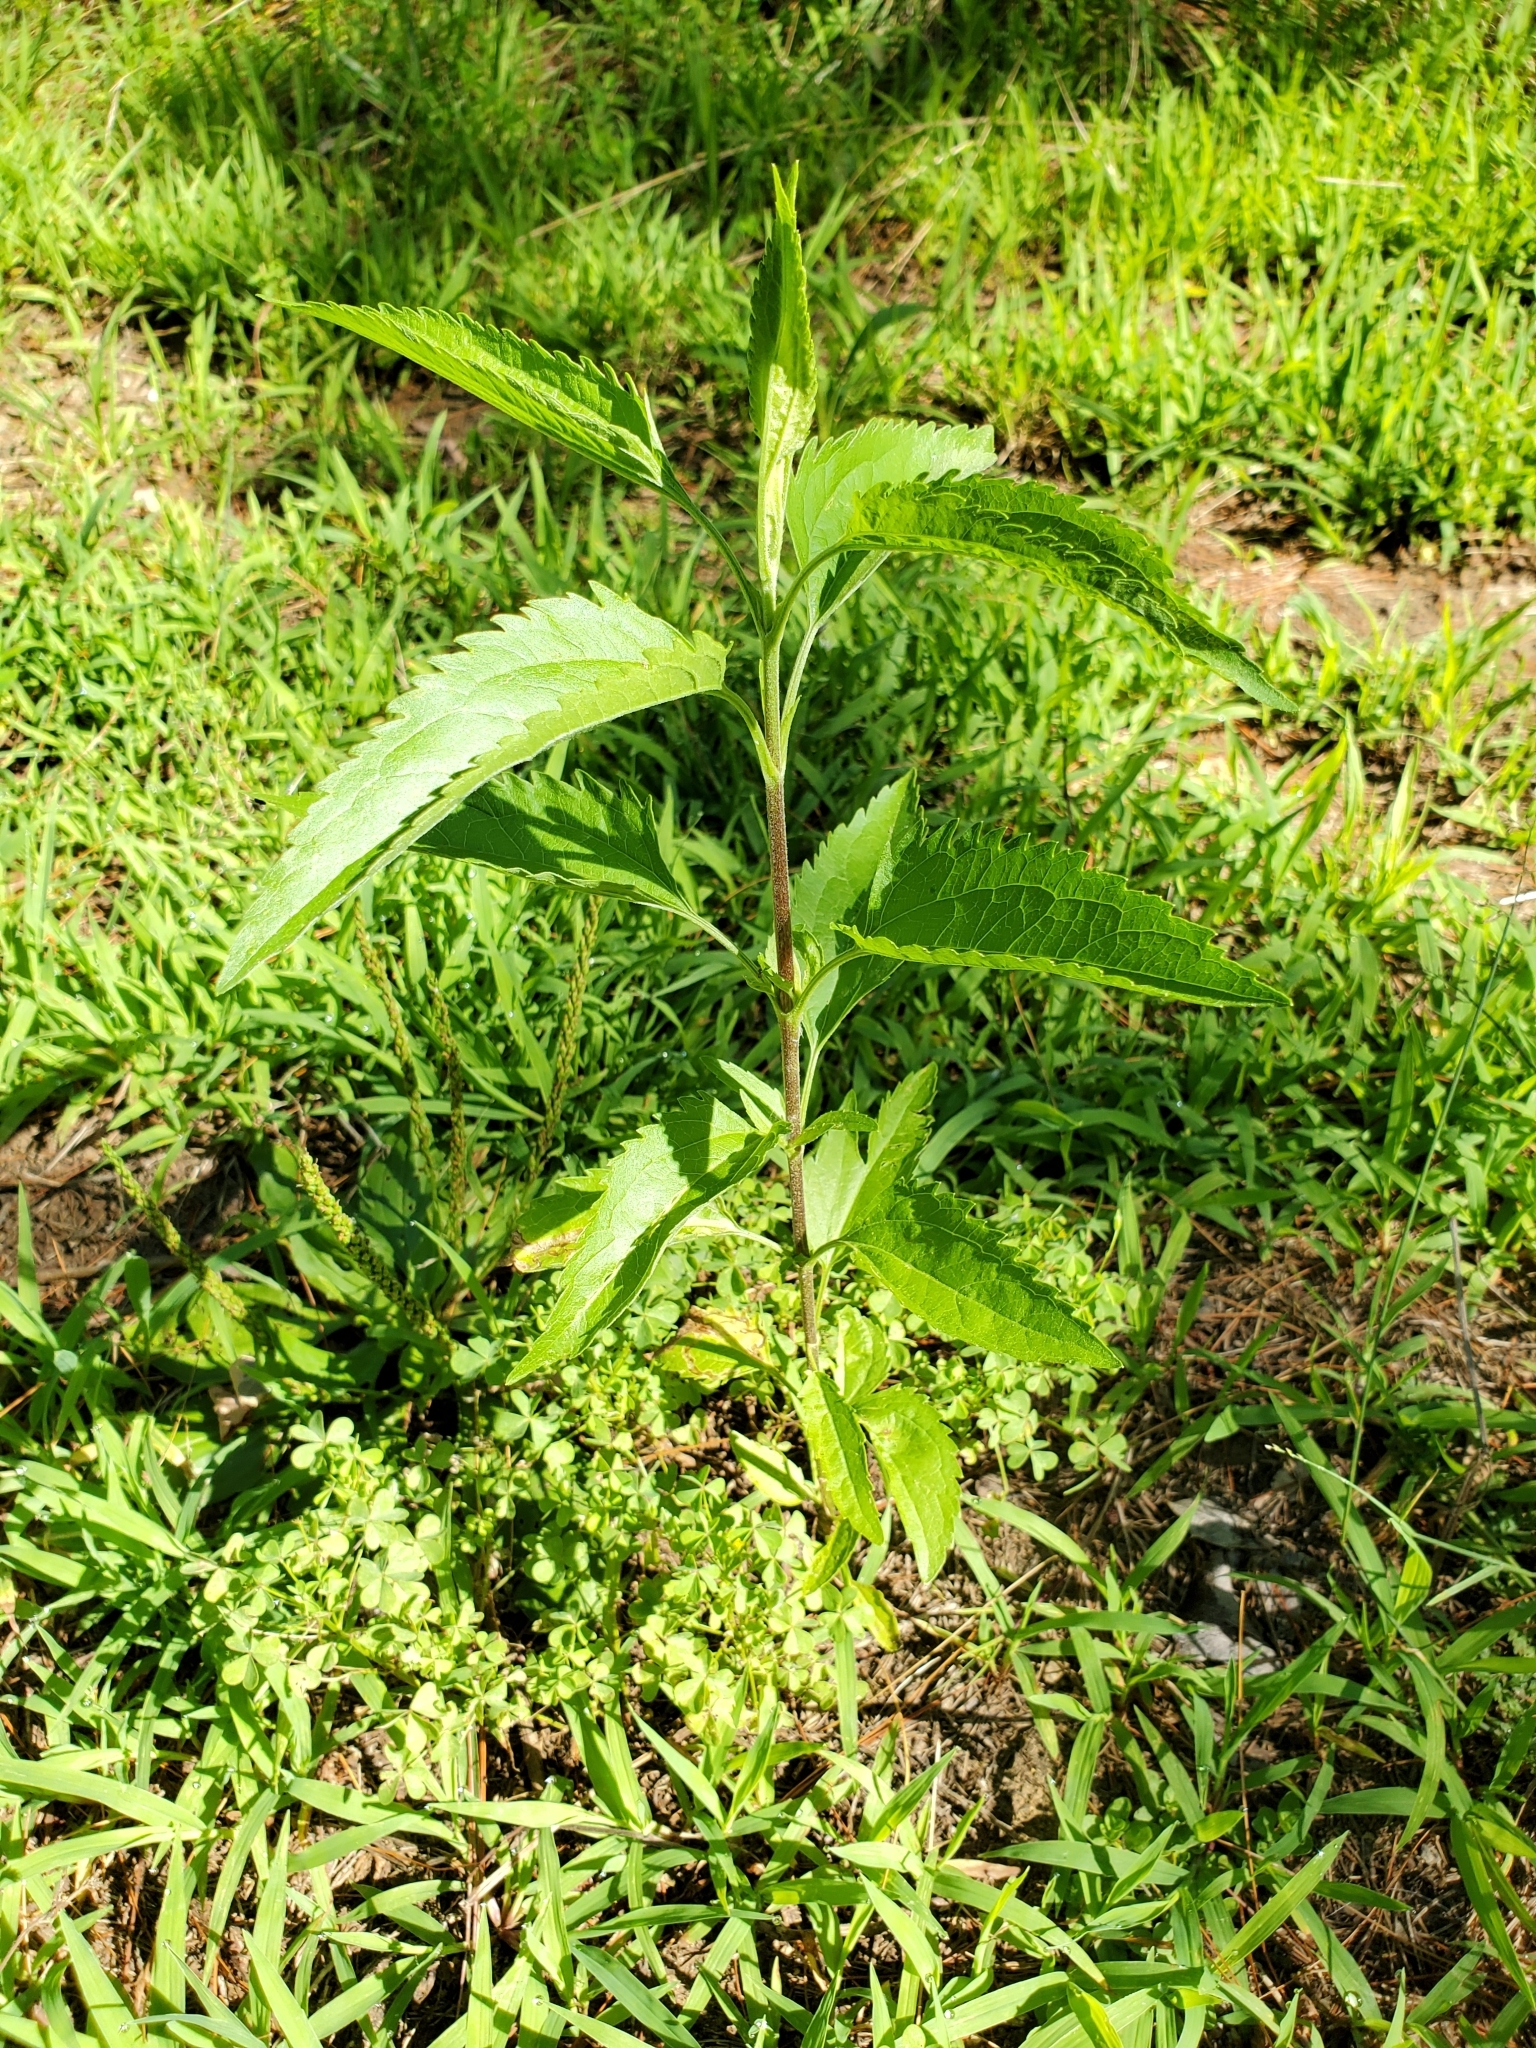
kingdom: Plantae
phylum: Tracheophyta
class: Magnoliopsida
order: Asterales
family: Asteraceae
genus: Eupatorium
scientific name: Eupatorium serotinum
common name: Late boneset
